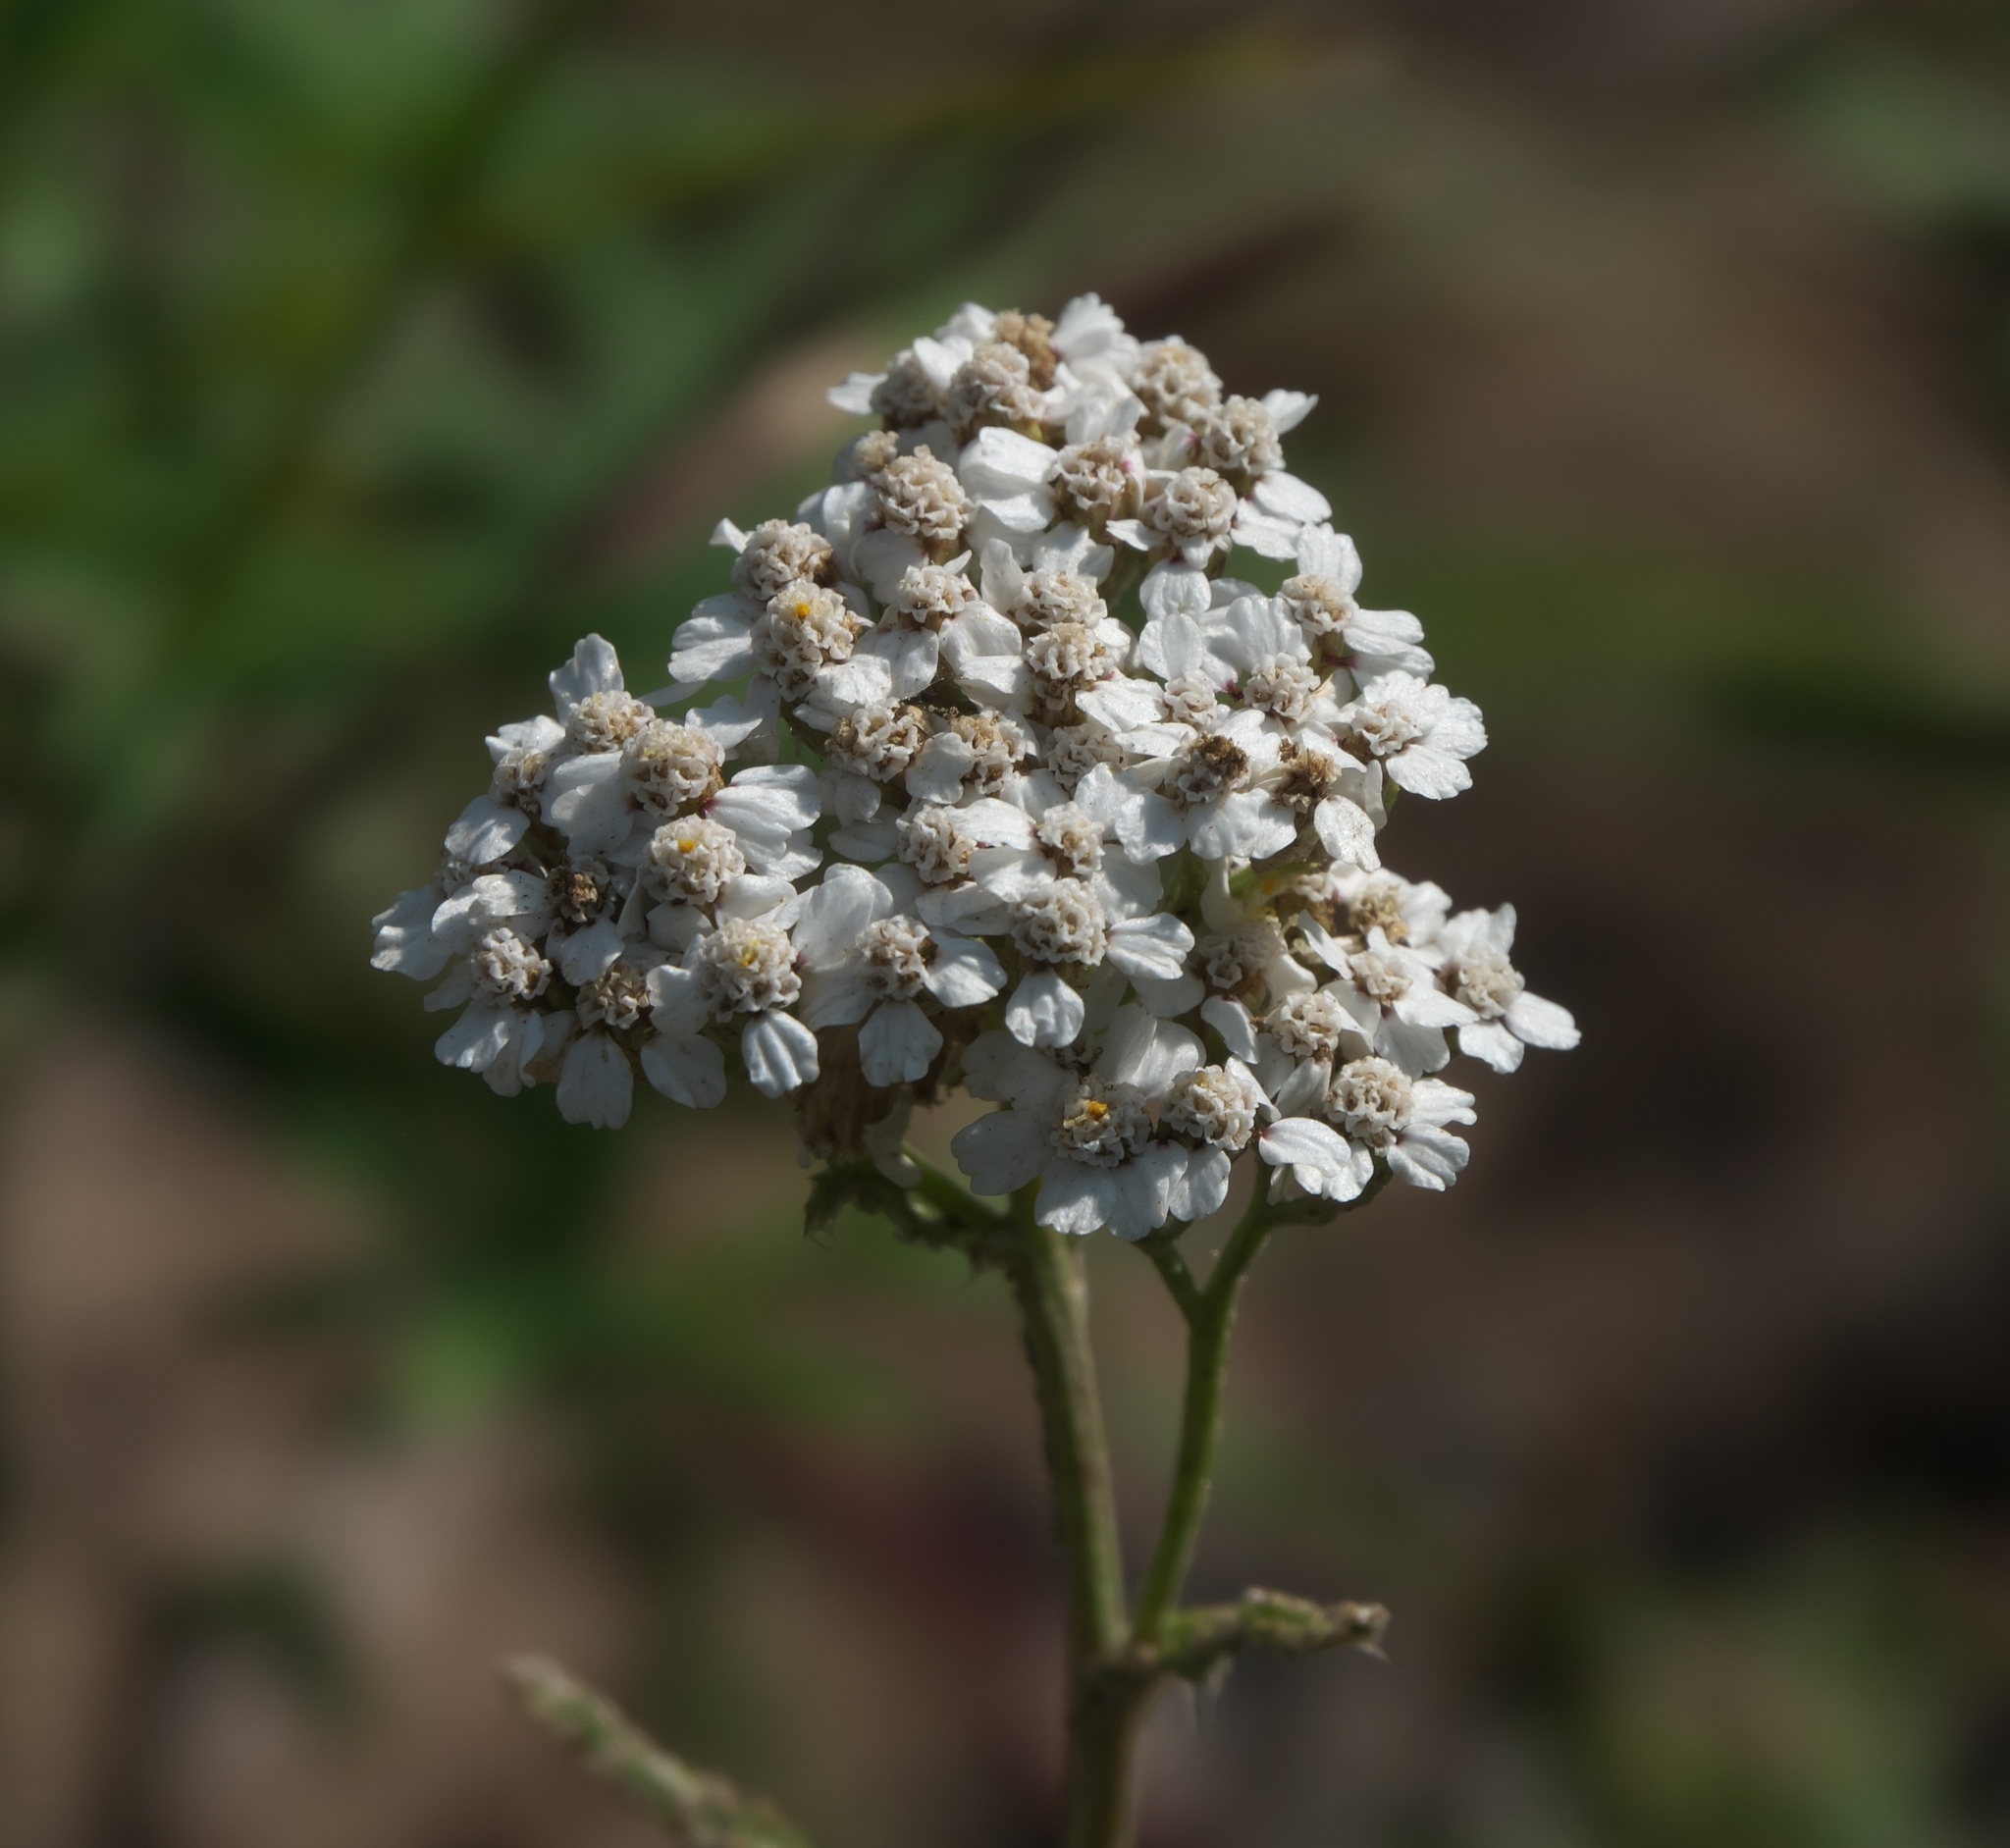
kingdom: Plantae
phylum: Tracheophyta
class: Magnoliopsida
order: Asterales
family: Asteraceae
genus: Achillea
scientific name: Achillea millefolium
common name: Yarrow
